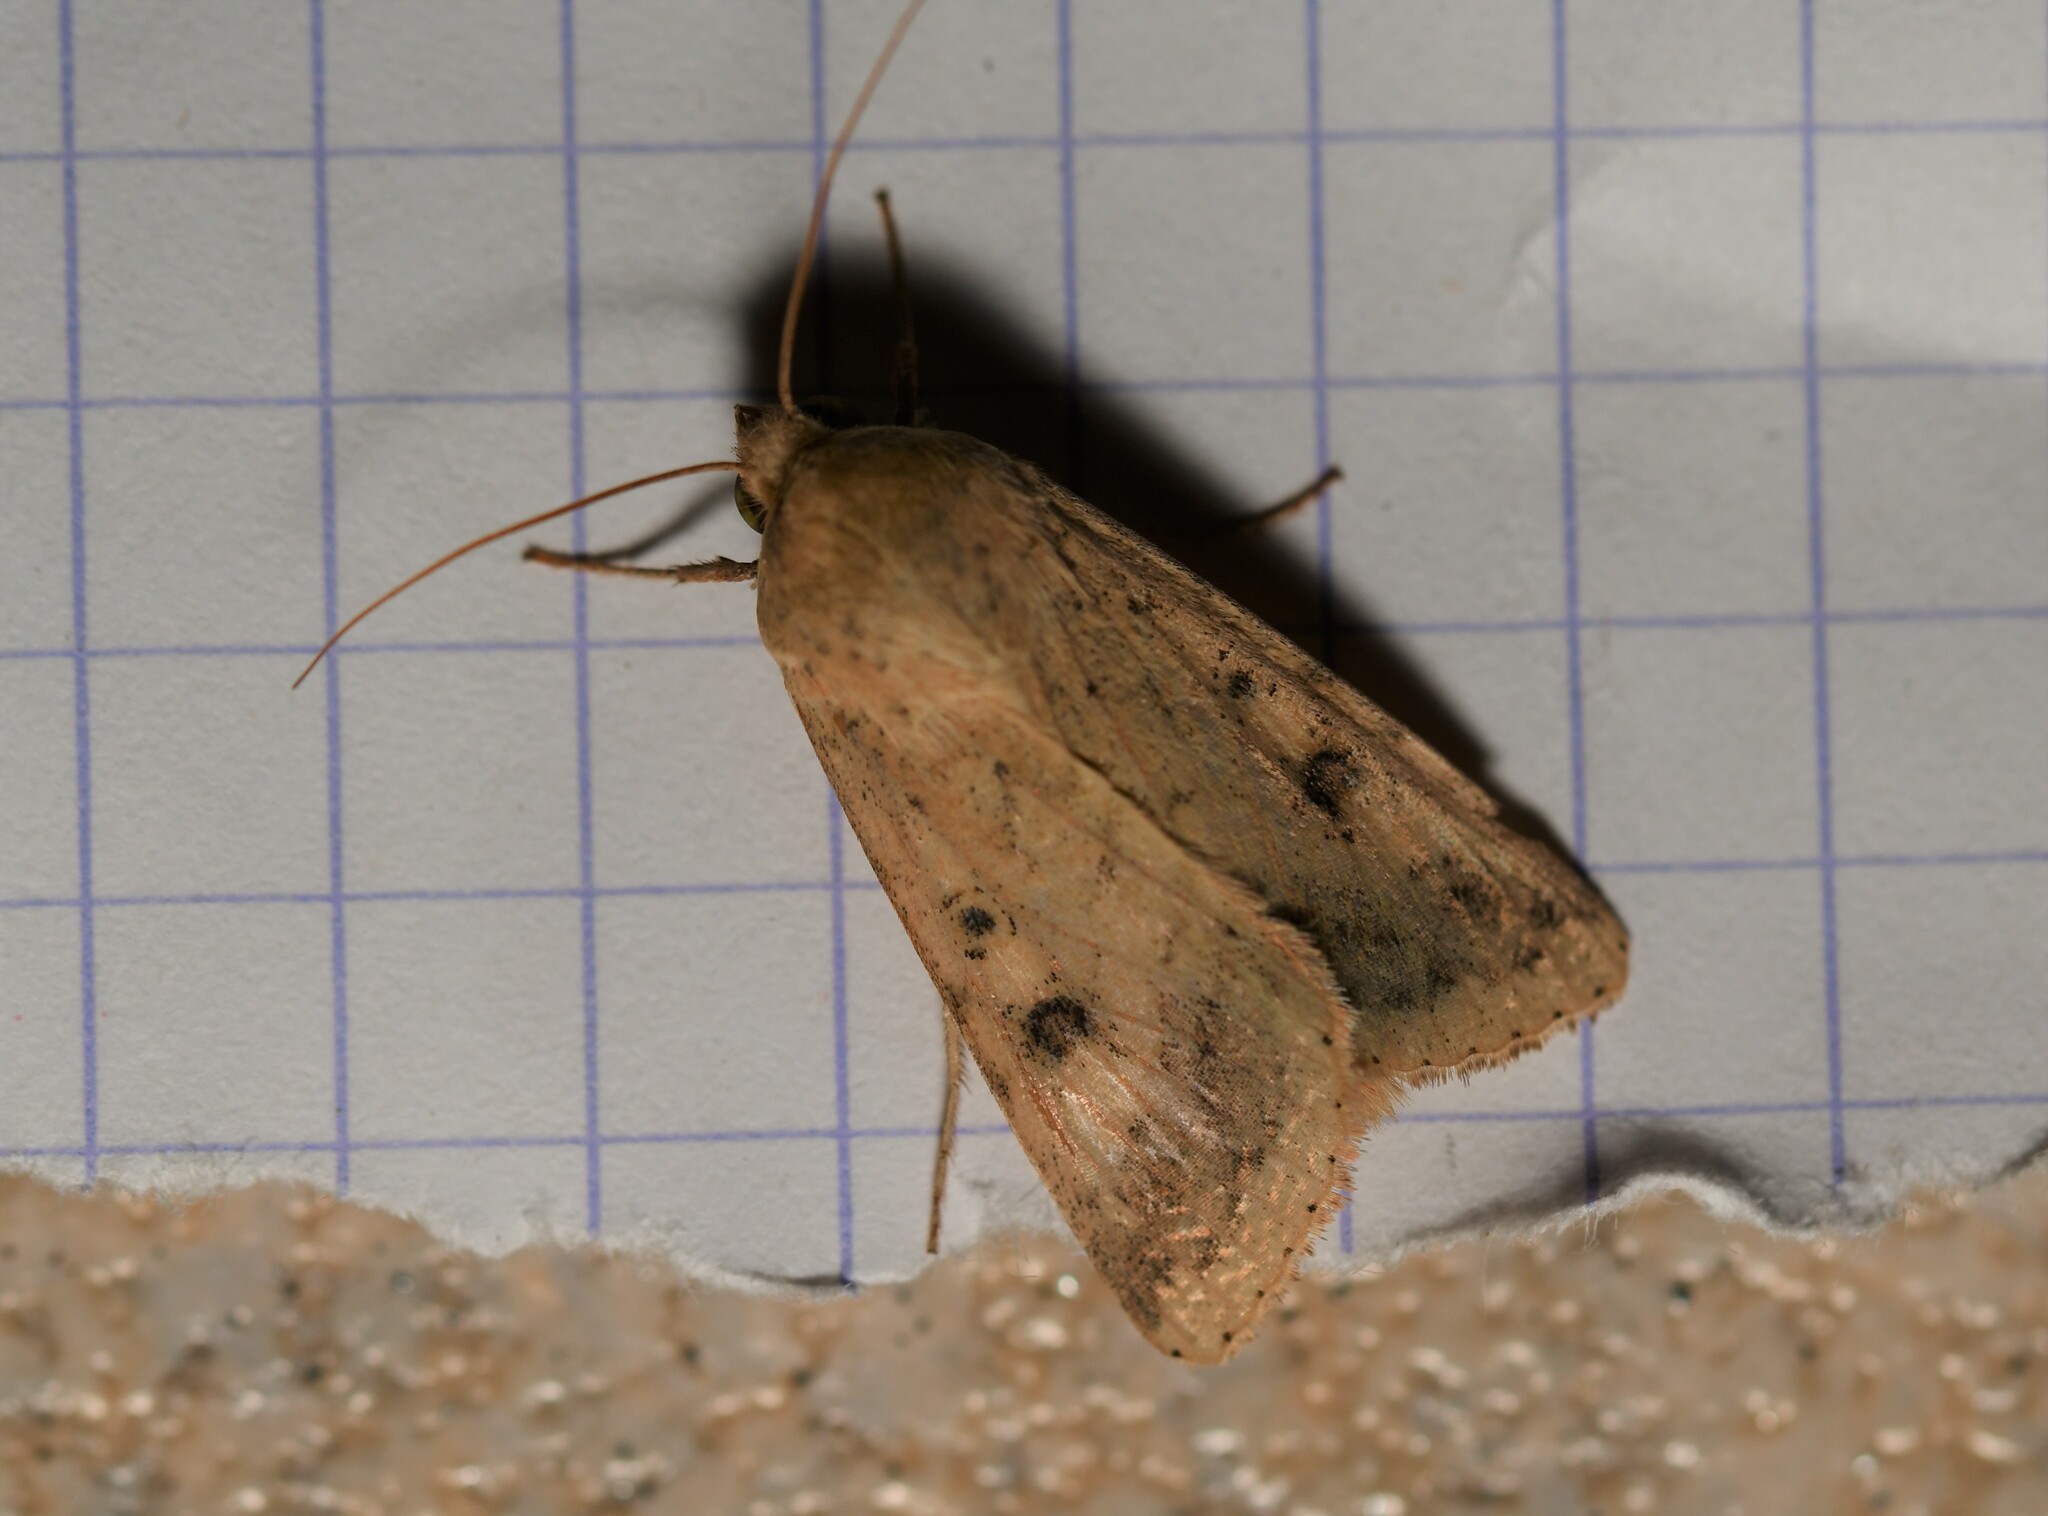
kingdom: Animalia
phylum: Arthropoda
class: Insecta
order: Lepidoptera
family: Noctuidae
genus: Helicoverpa
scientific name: Helicoverpa armigera
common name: Cotton bollworm
